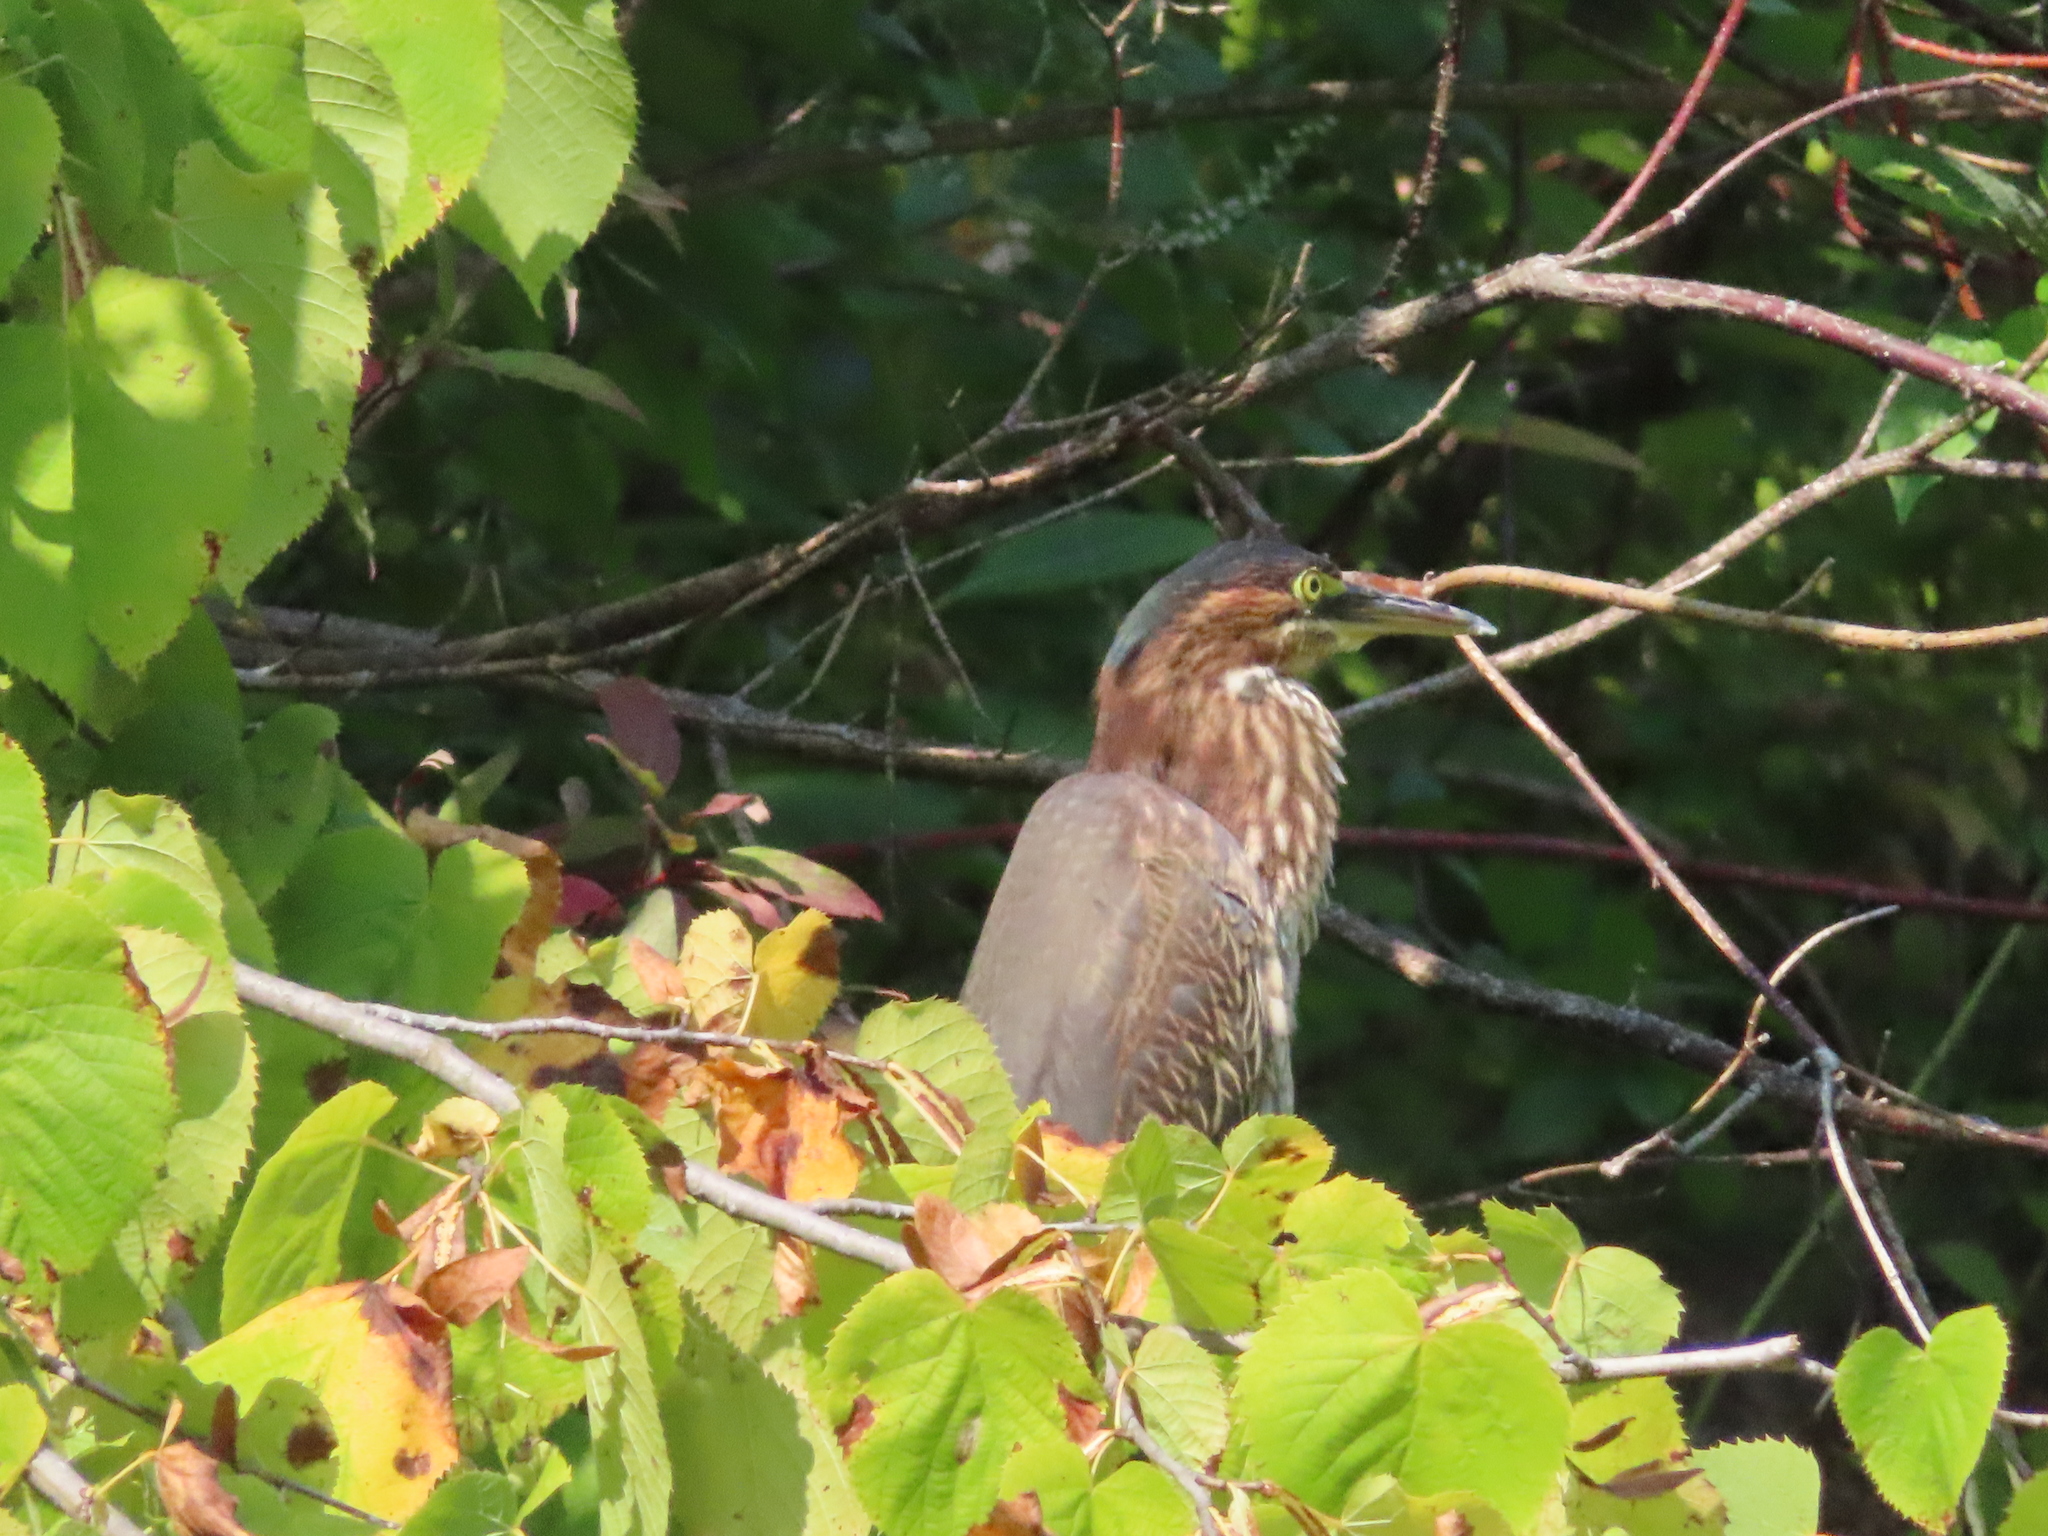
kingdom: Animalia
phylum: Chordata
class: Aves
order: Pelecaniformes
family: Ardeidae
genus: Butorides
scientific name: Butorides virescens
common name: Green heron
